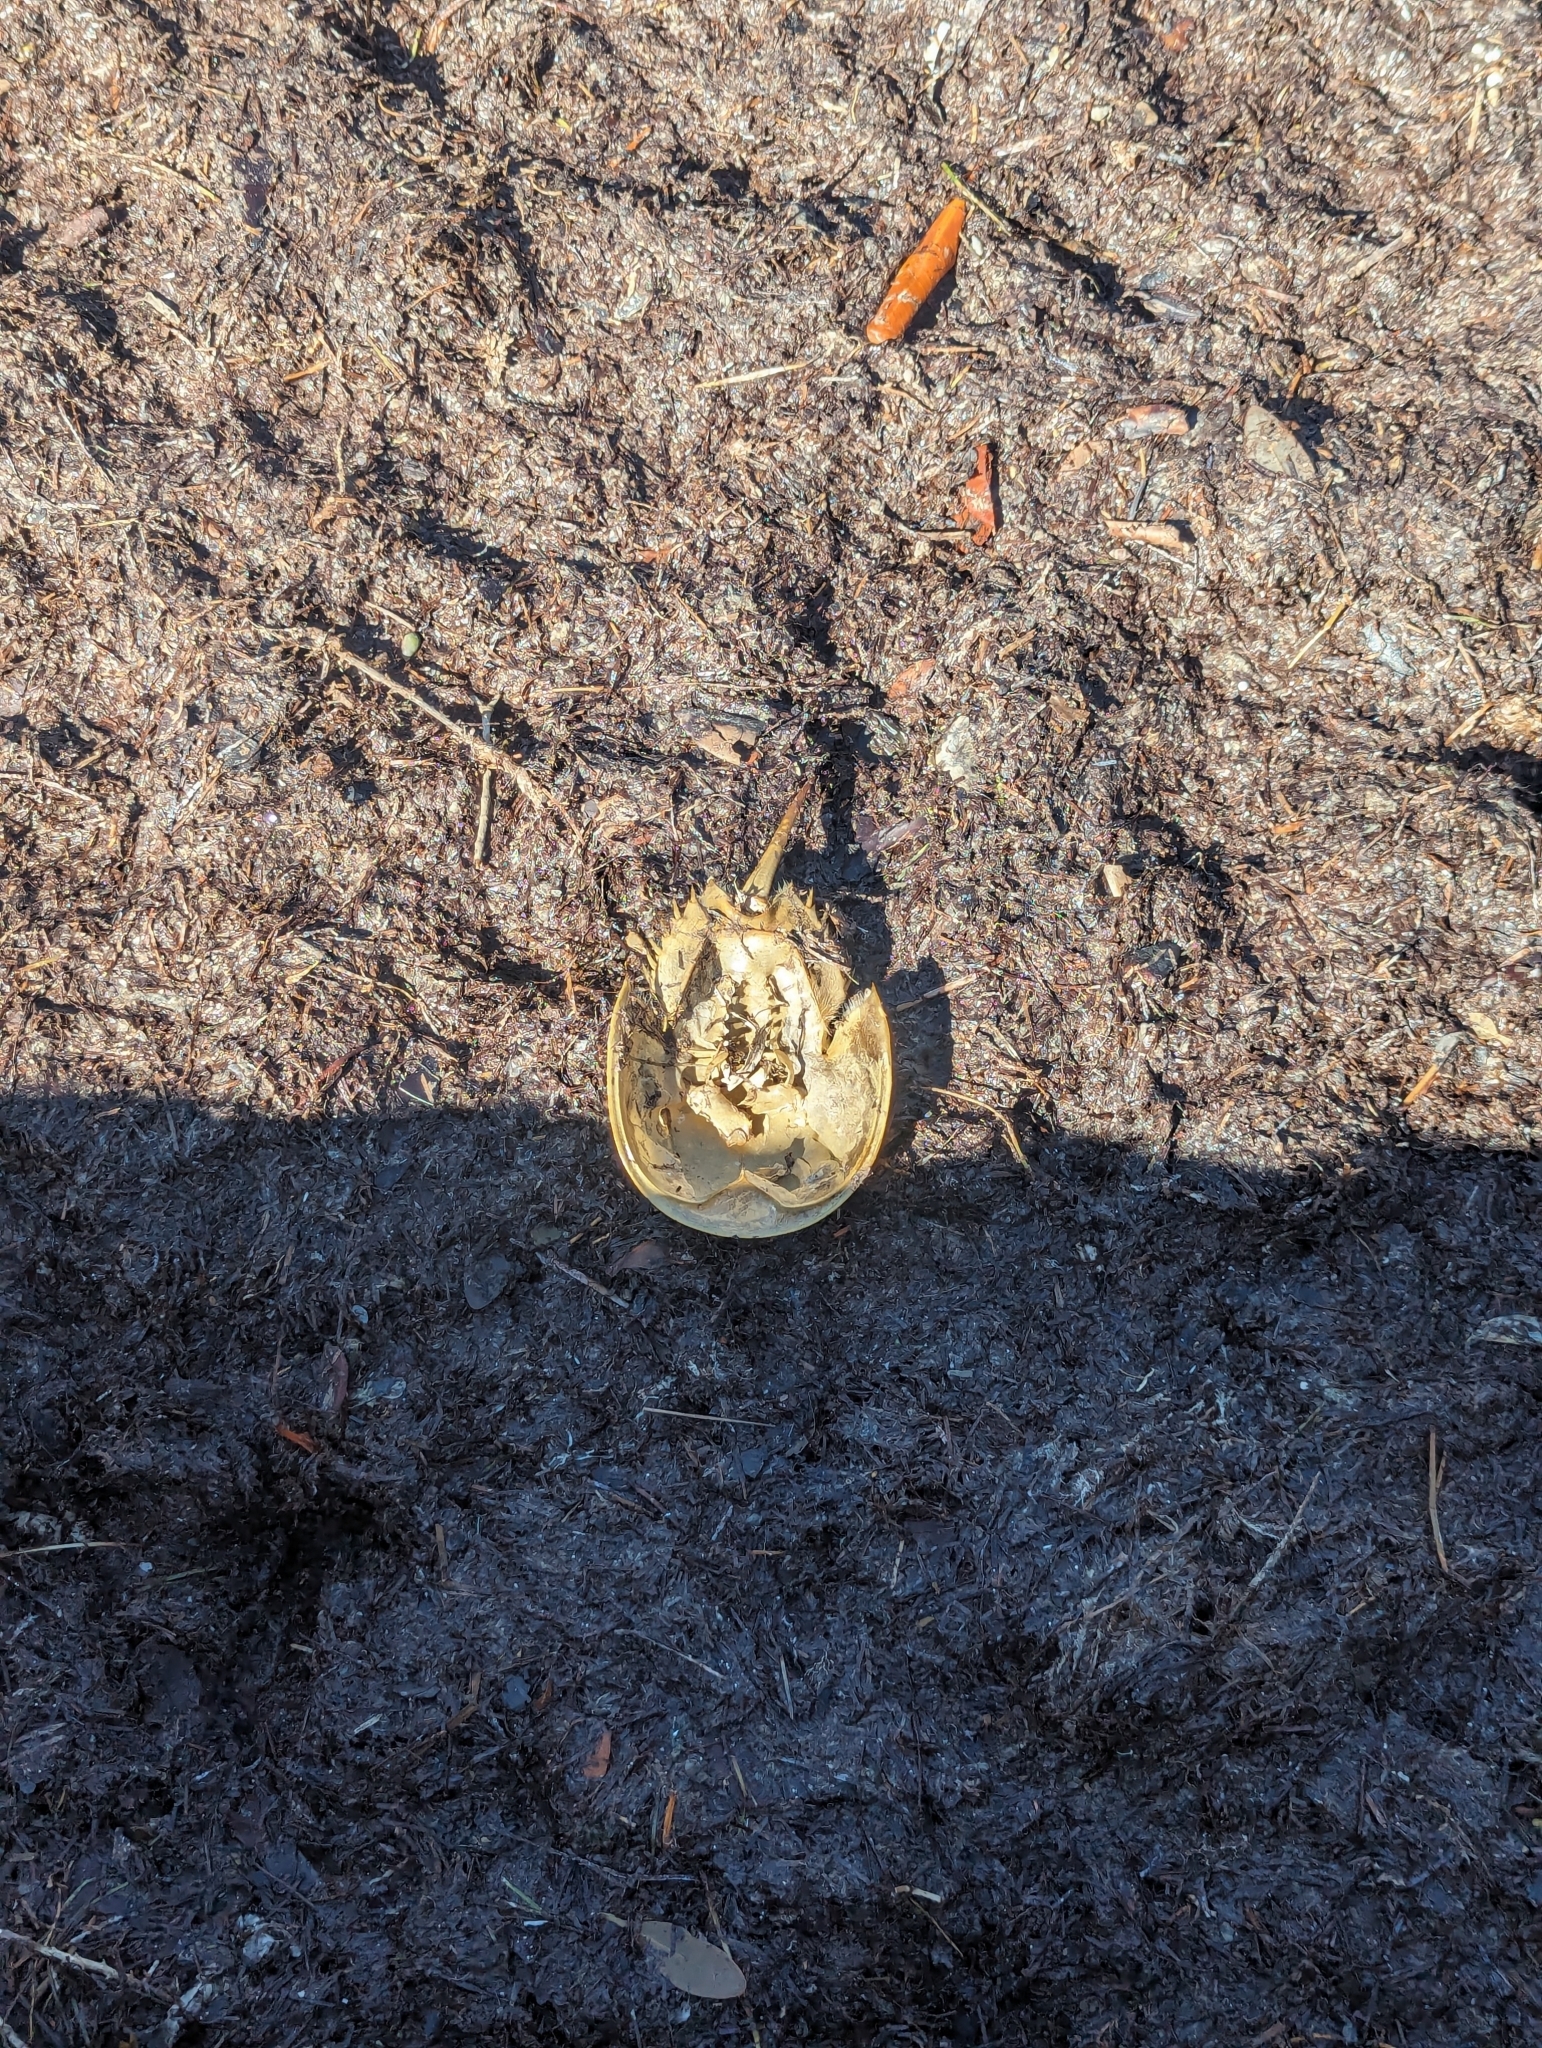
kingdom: Animalia
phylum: Arthropoda
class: Merostomata
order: Xiphosurida
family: Limulidae
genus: Limulus
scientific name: Limulus polyphemus
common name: Horseshoe crab
